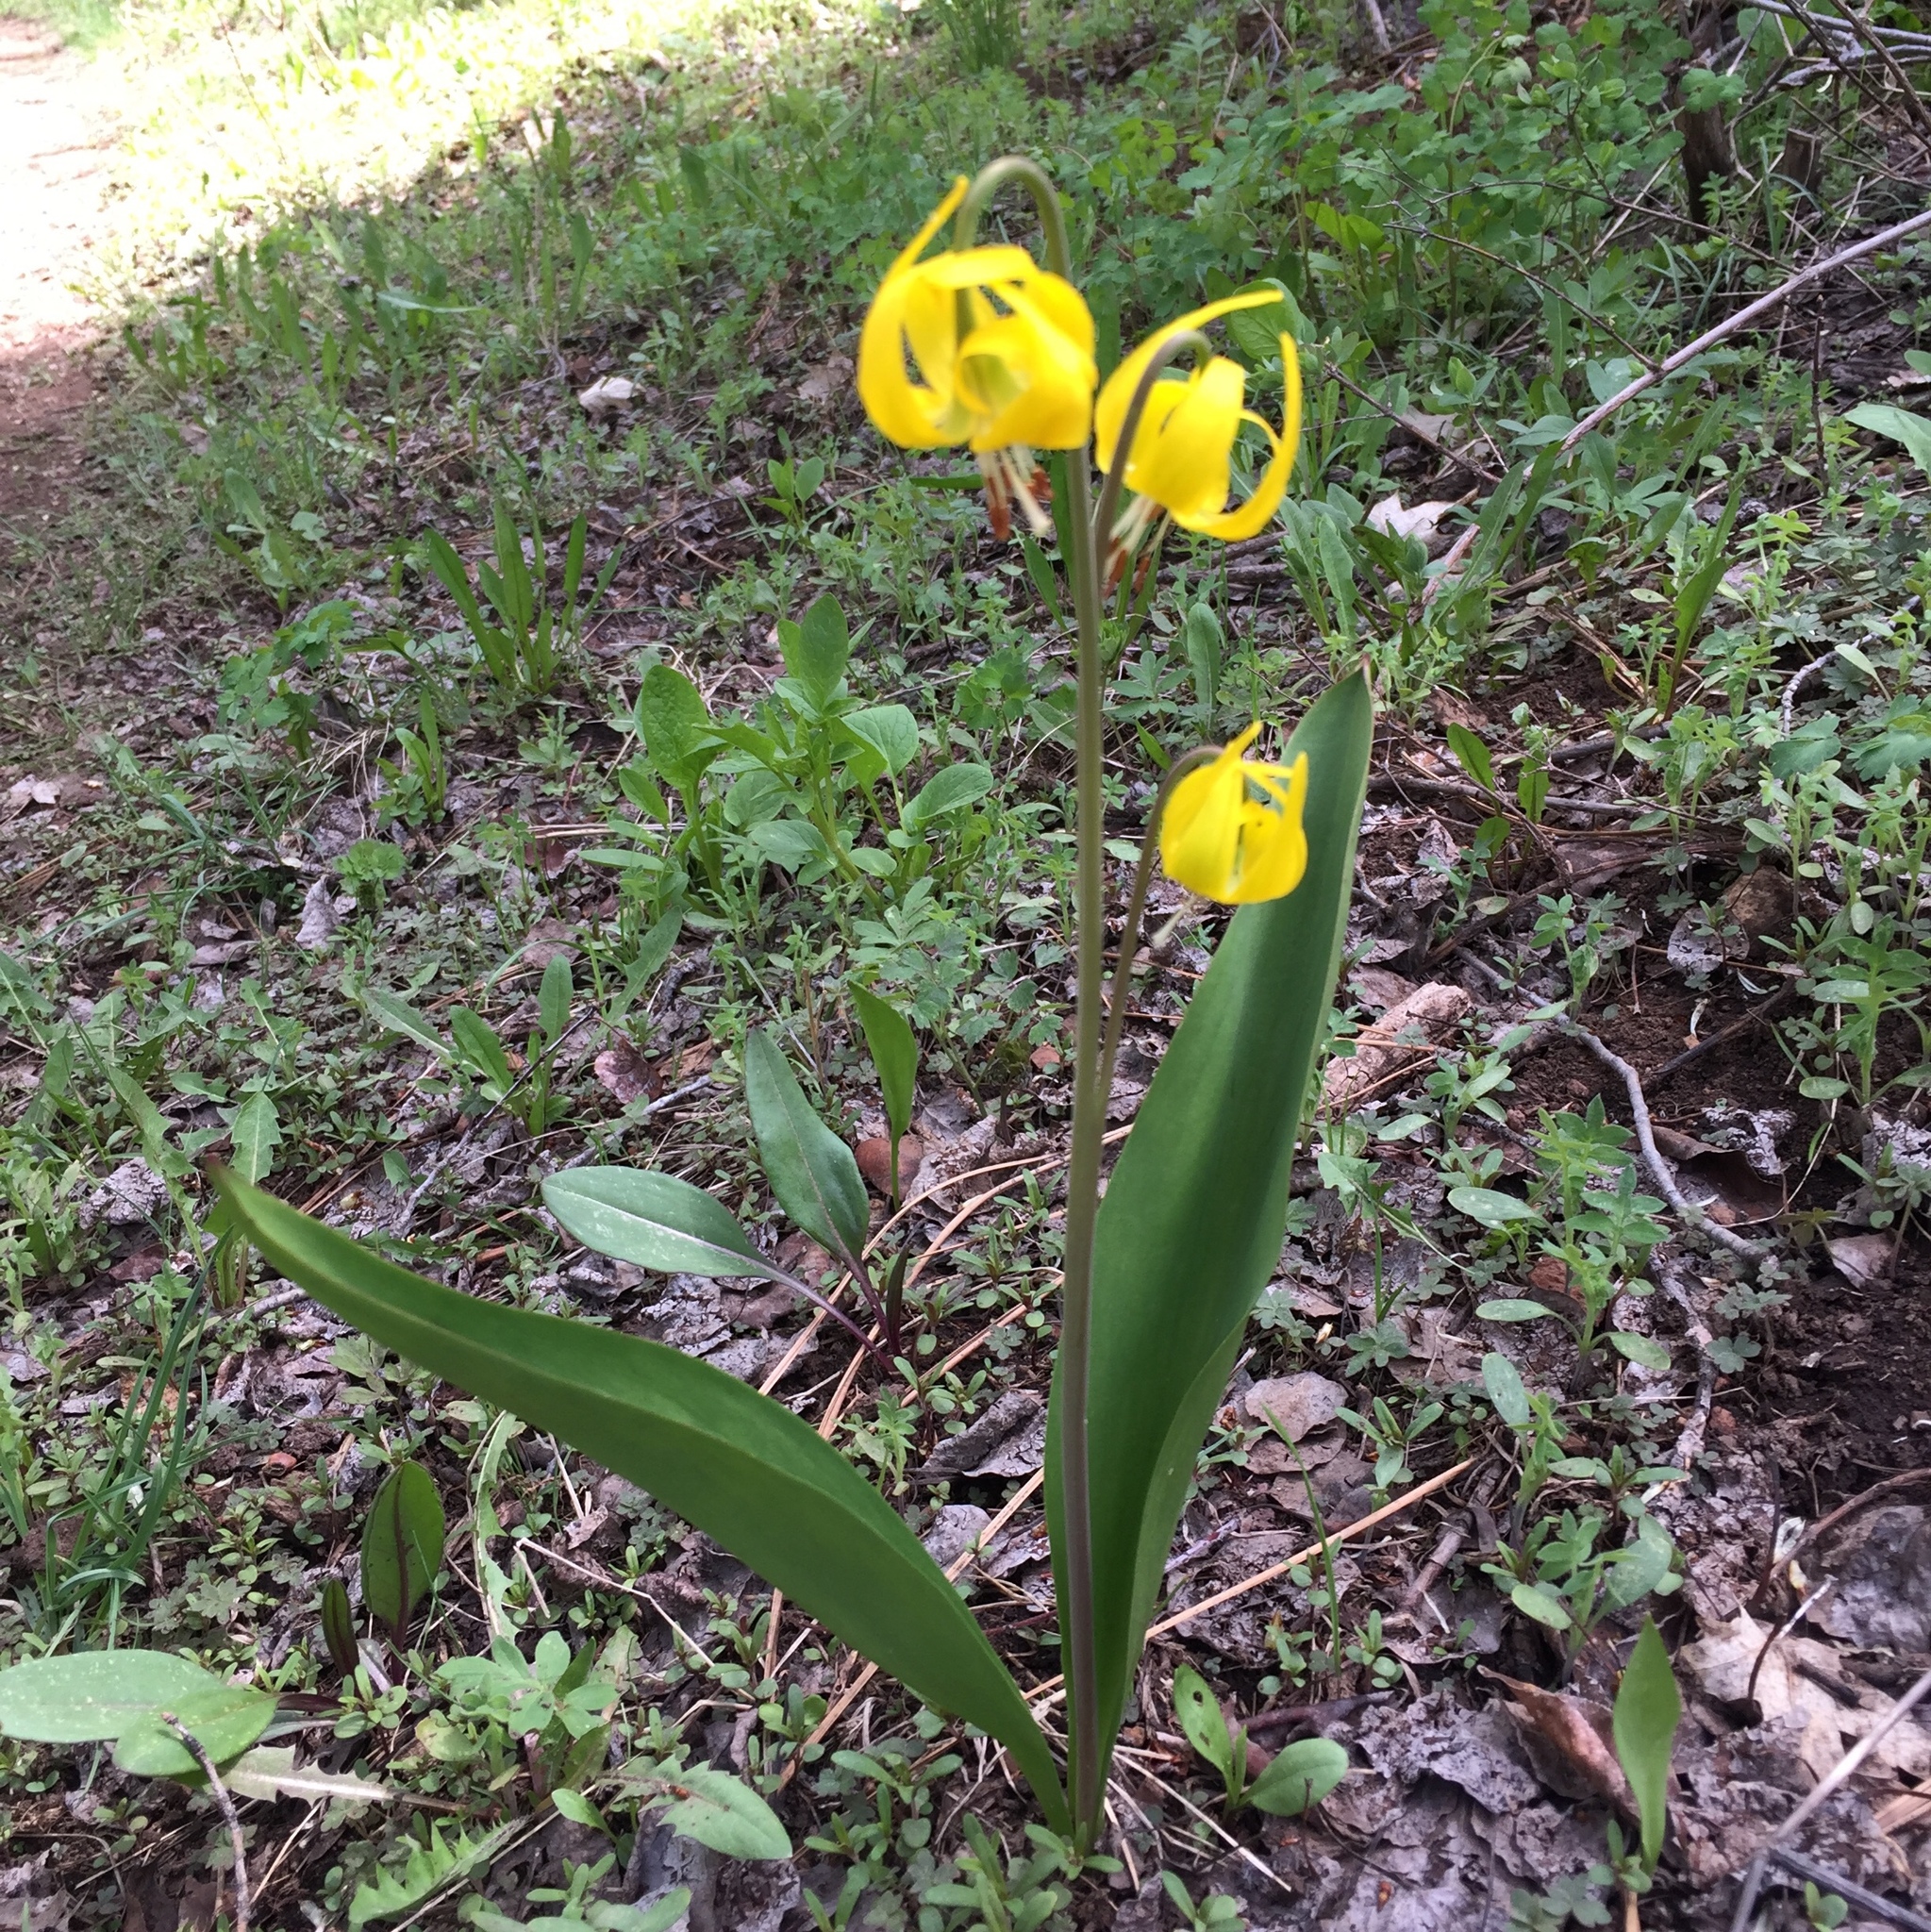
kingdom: Plantae
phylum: Tracheophyta
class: Liliopsida
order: Liliales
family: Liliaceae
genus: Erythronium
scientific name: Erythronium grandiflorum
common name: Avalanche-lily
